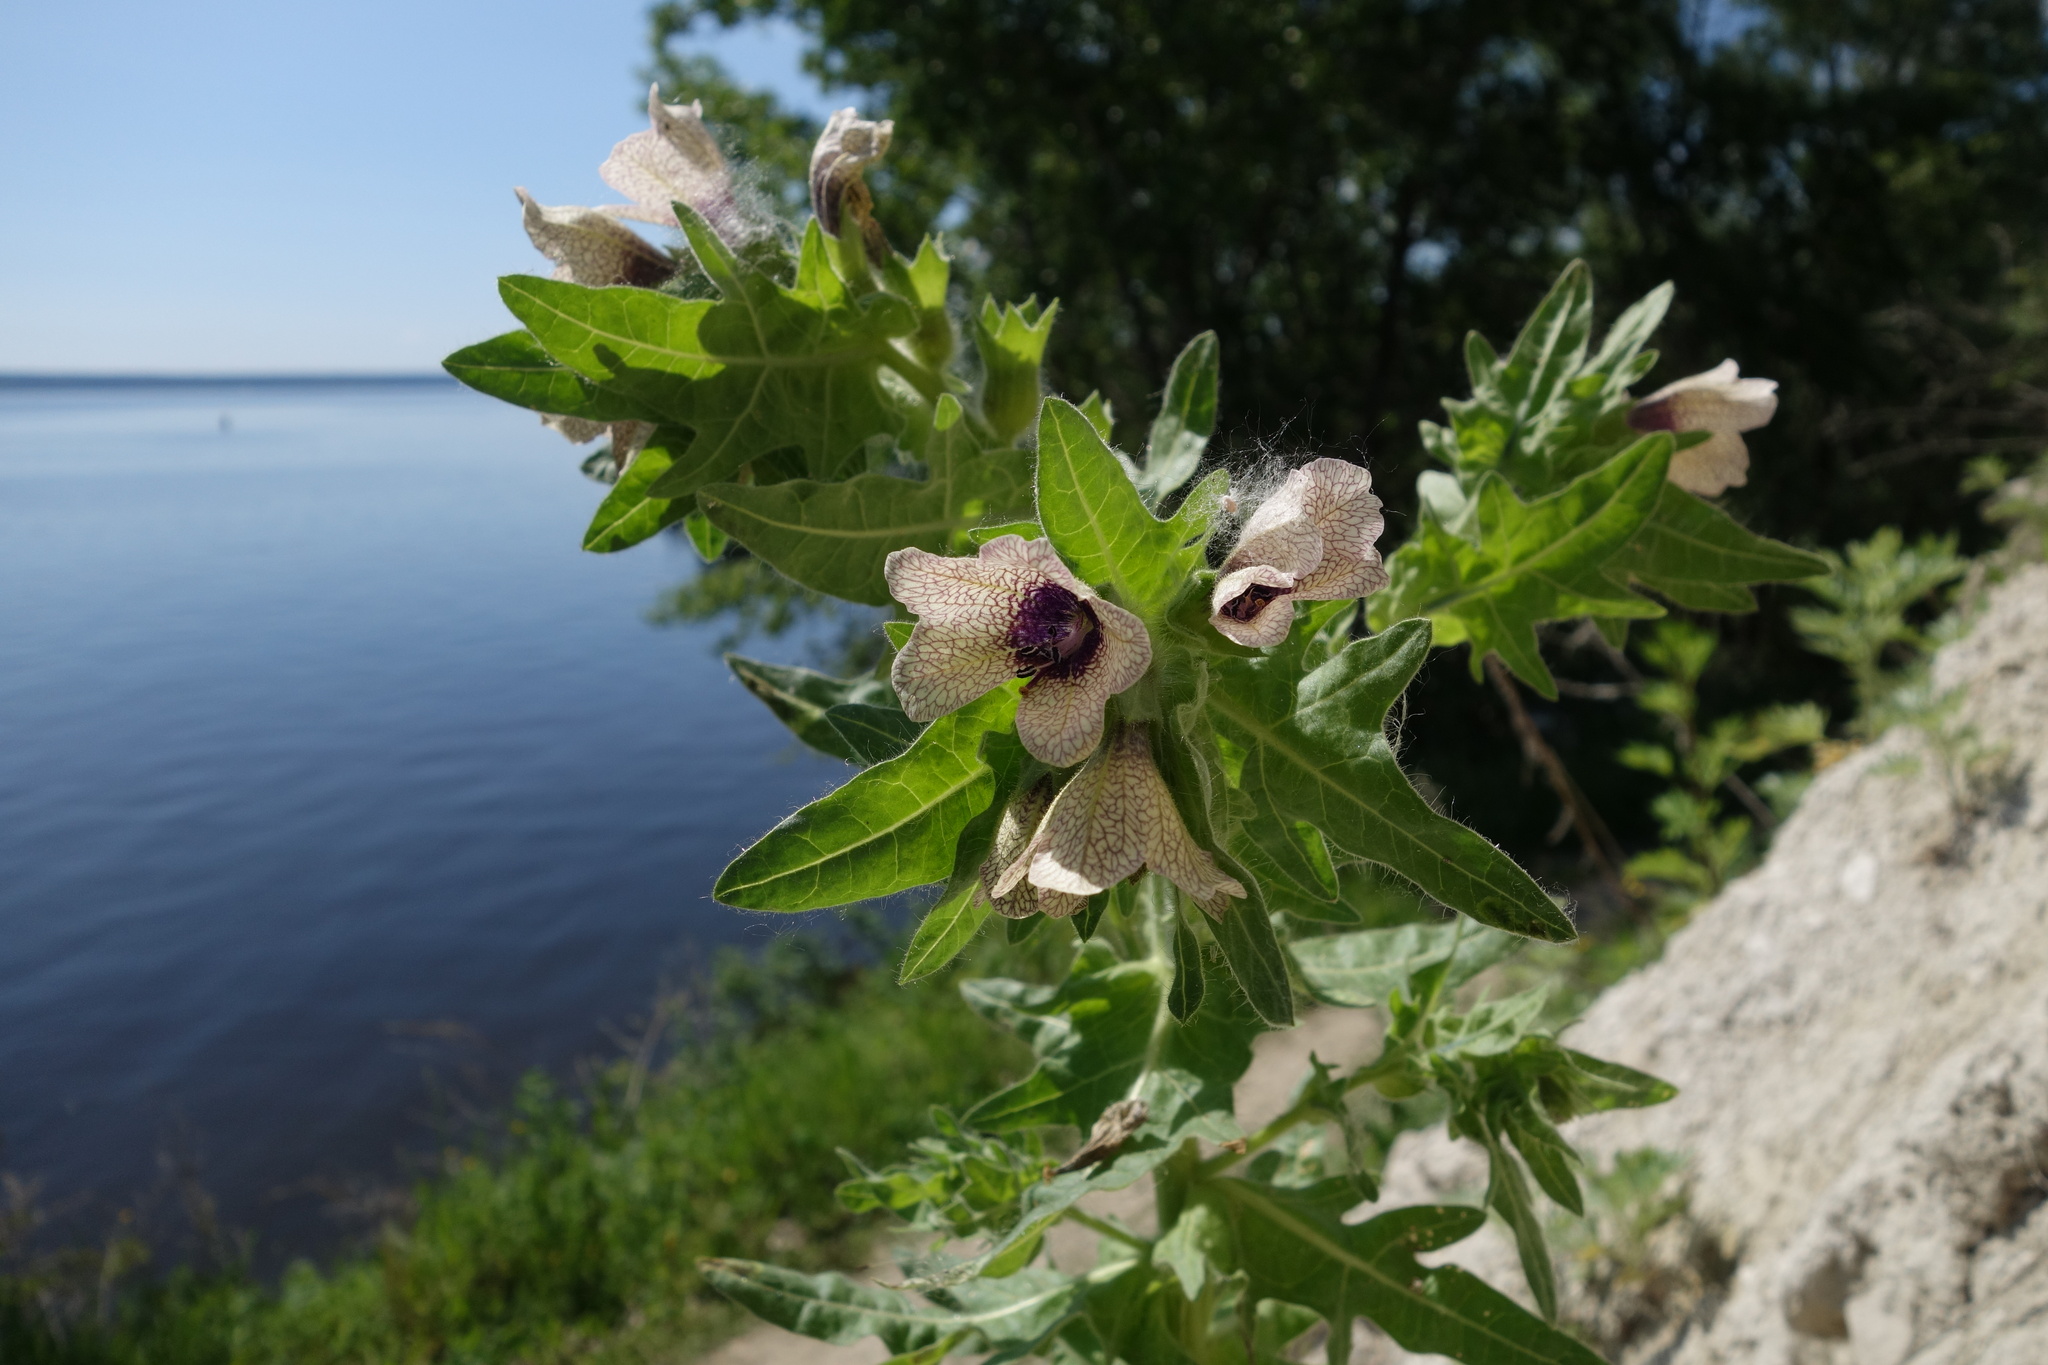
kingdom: Plantae
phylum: Tracheophyta
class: Magnoliopsida
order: Solanales
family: Solanaceae
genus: Hyoscyamus
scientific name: Hyoscyamus niger
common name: Henbane
